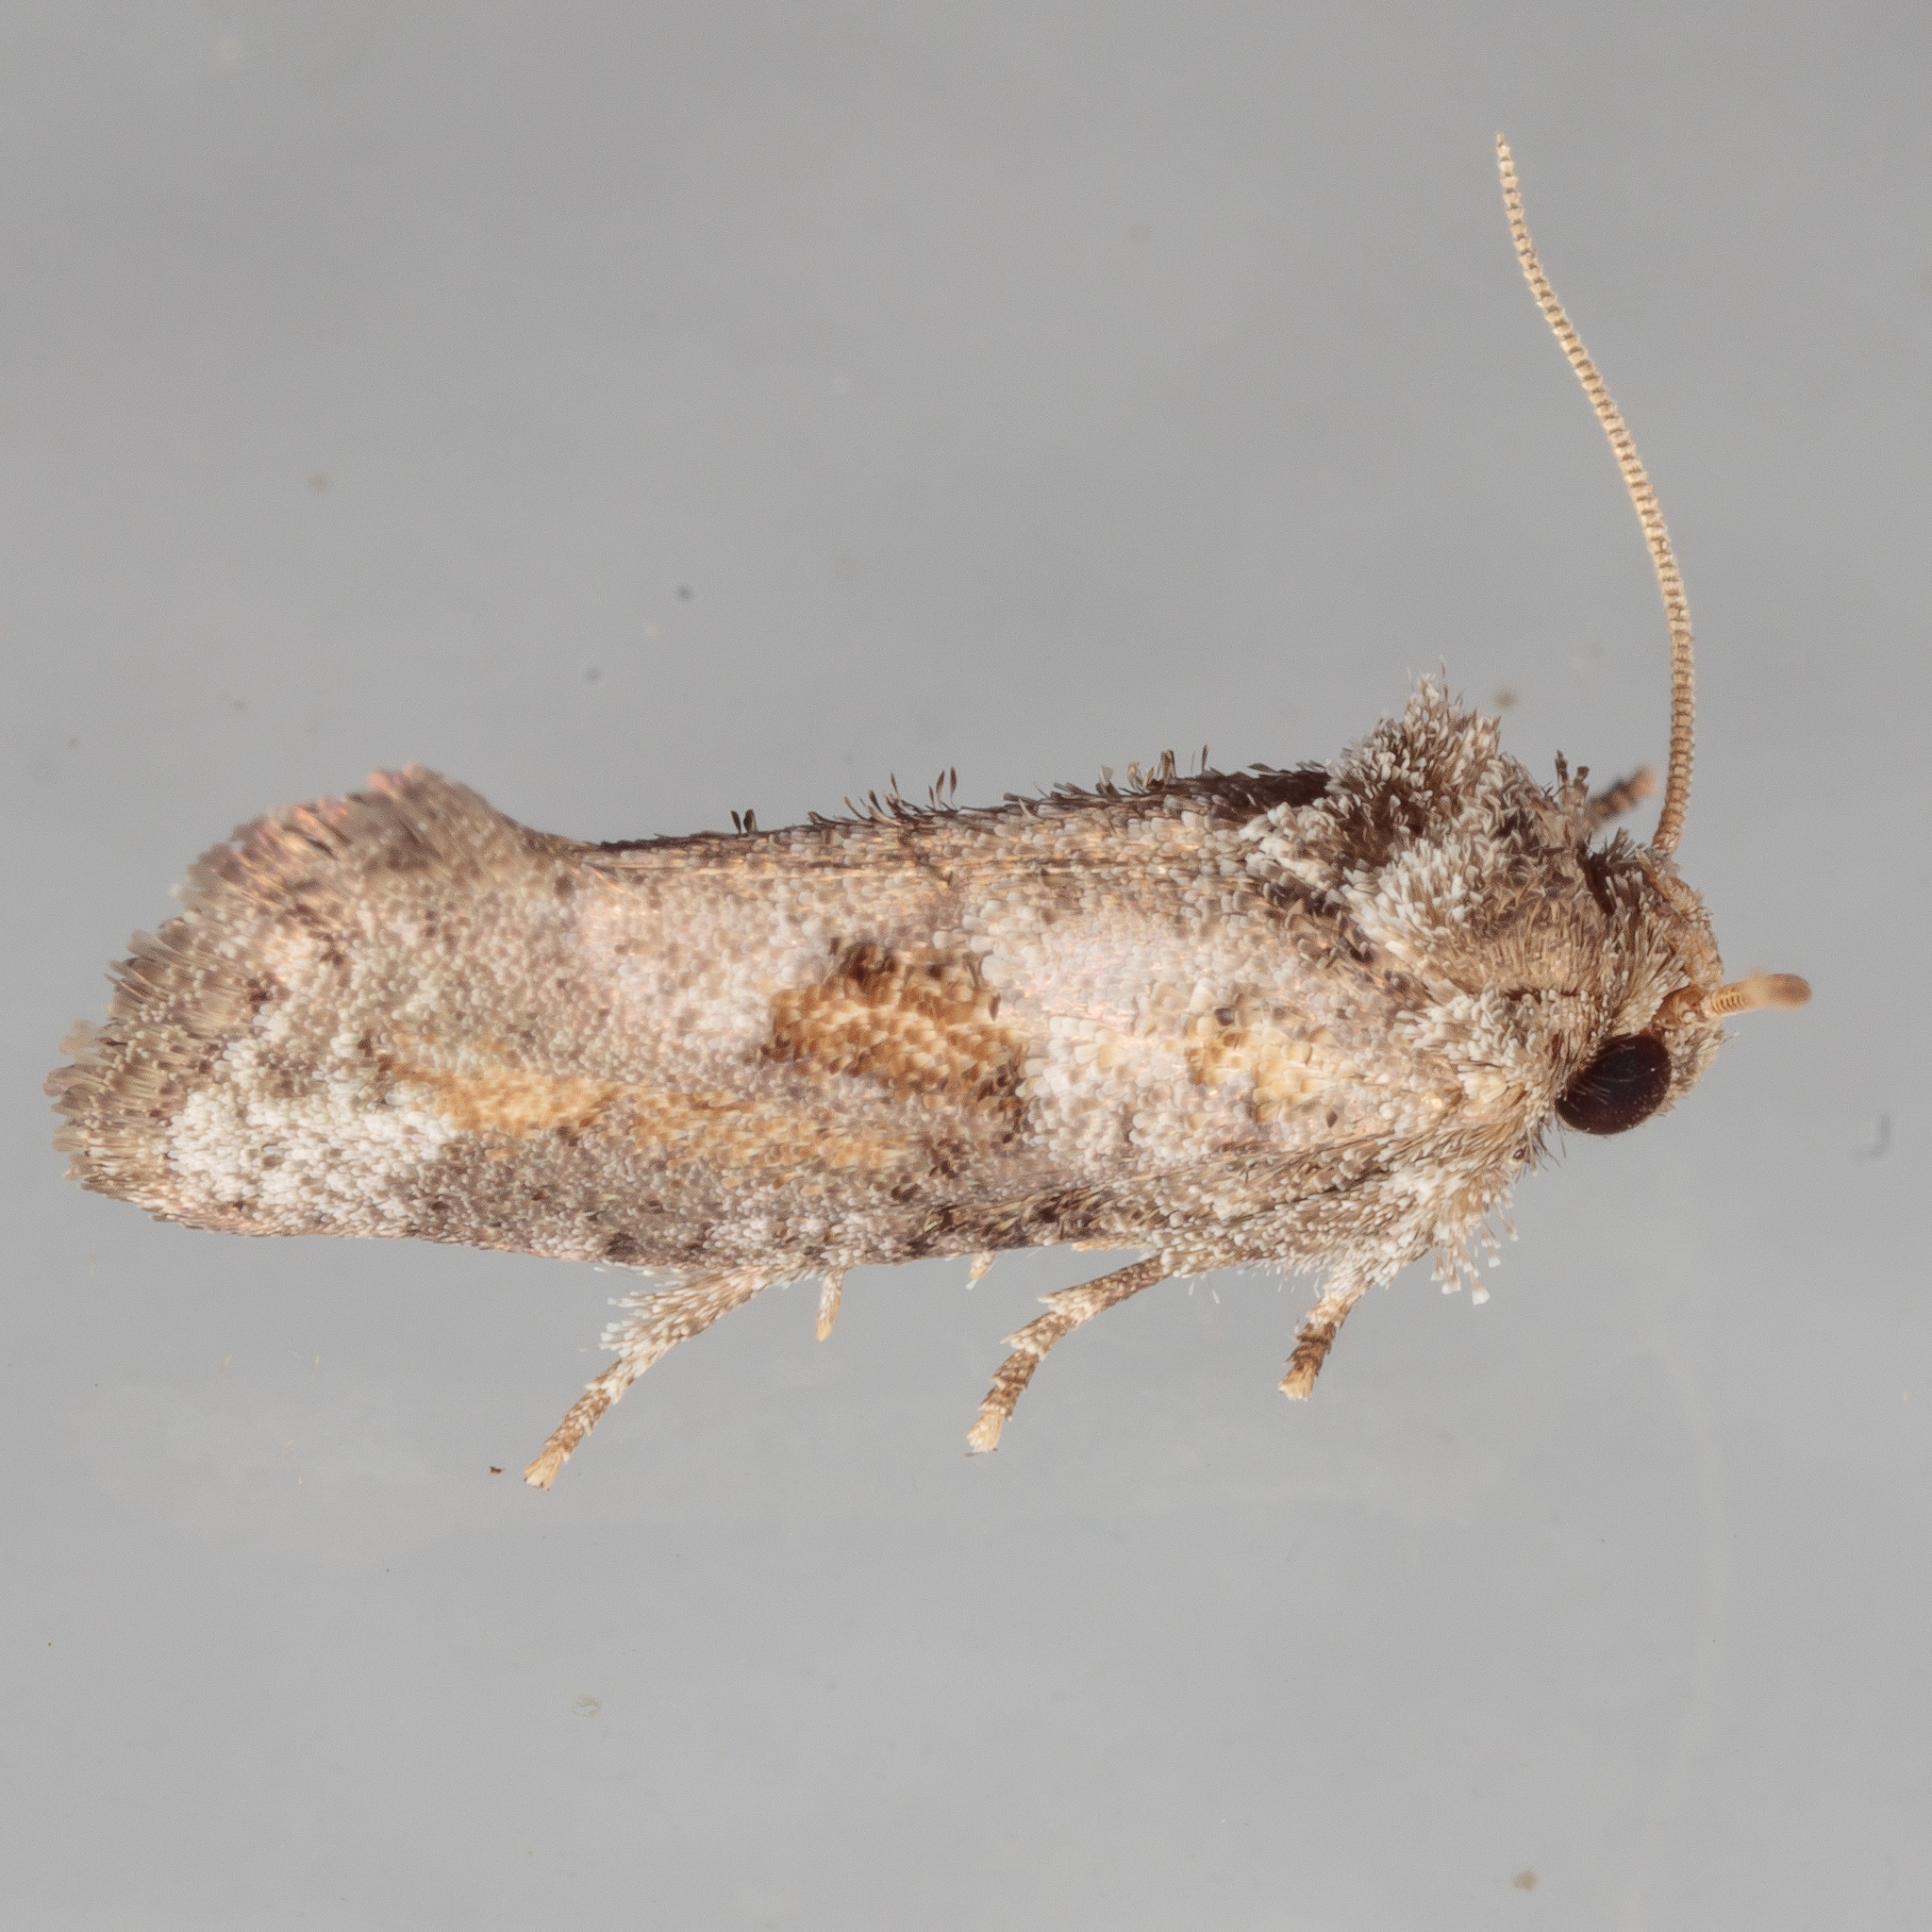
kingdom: Animalia
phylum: Arthropoda
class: Insecta
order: Lepidoptera
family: Tineidae
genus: Acrolophus
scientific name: Acrolophus piger
